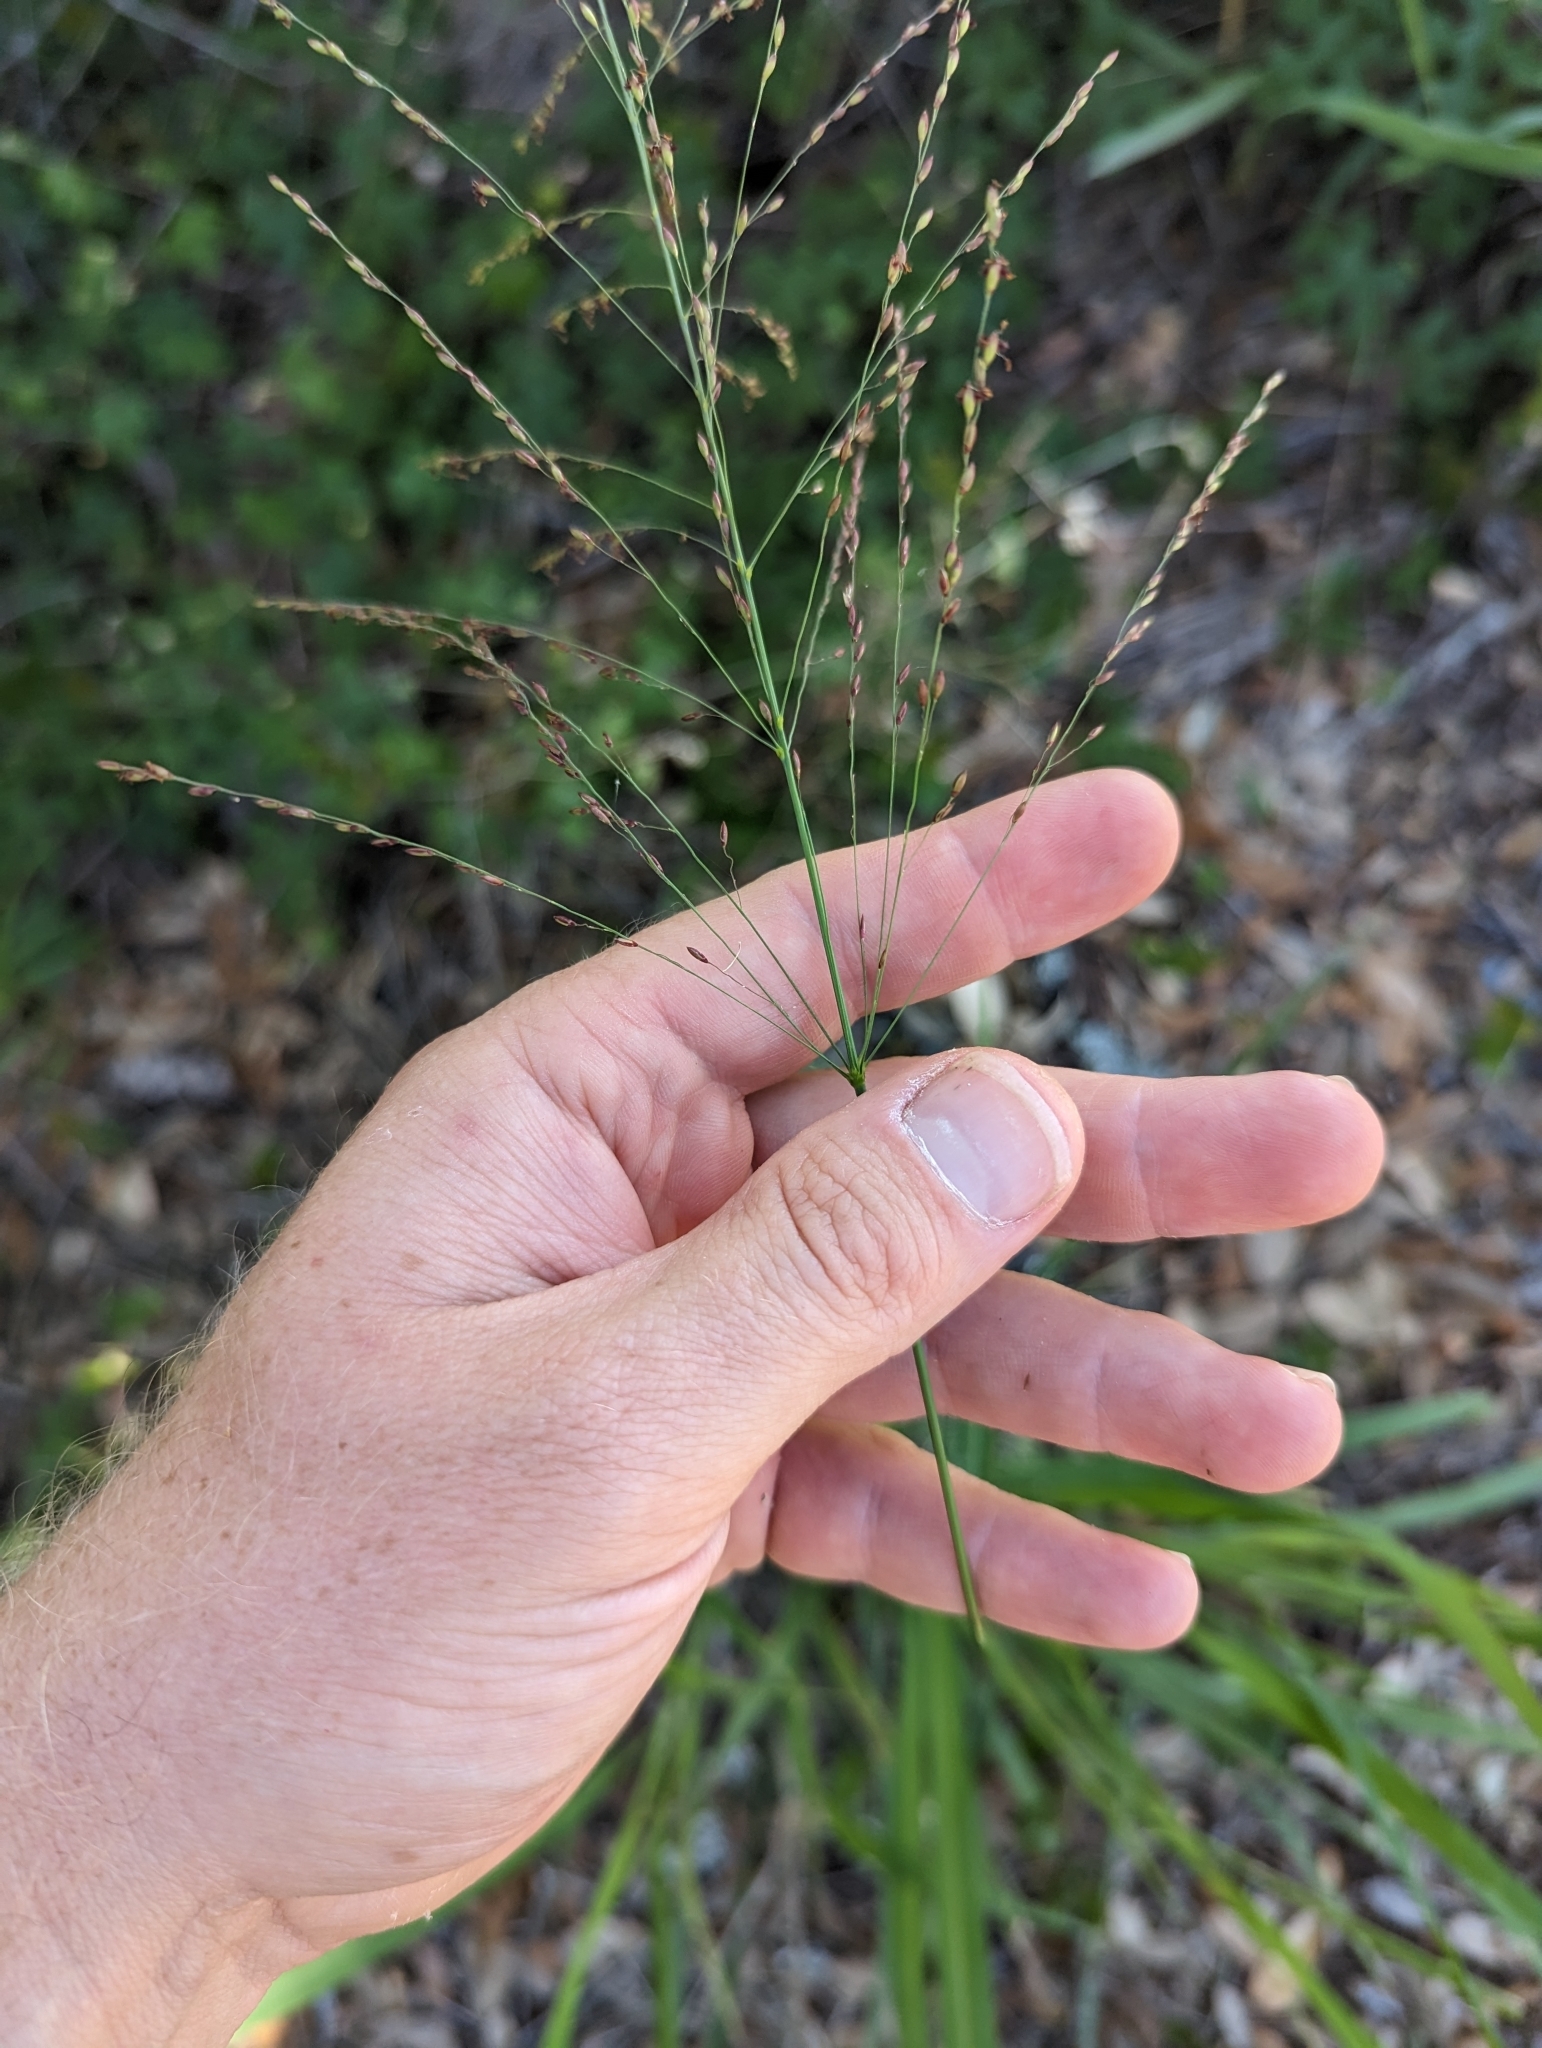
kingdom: Plantae
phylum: Tracheophyta
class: Liliopsida
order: Poales
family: Poaceae
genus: Megathyrsus
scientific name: Megathyrsus maximus
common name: Guineagrass
